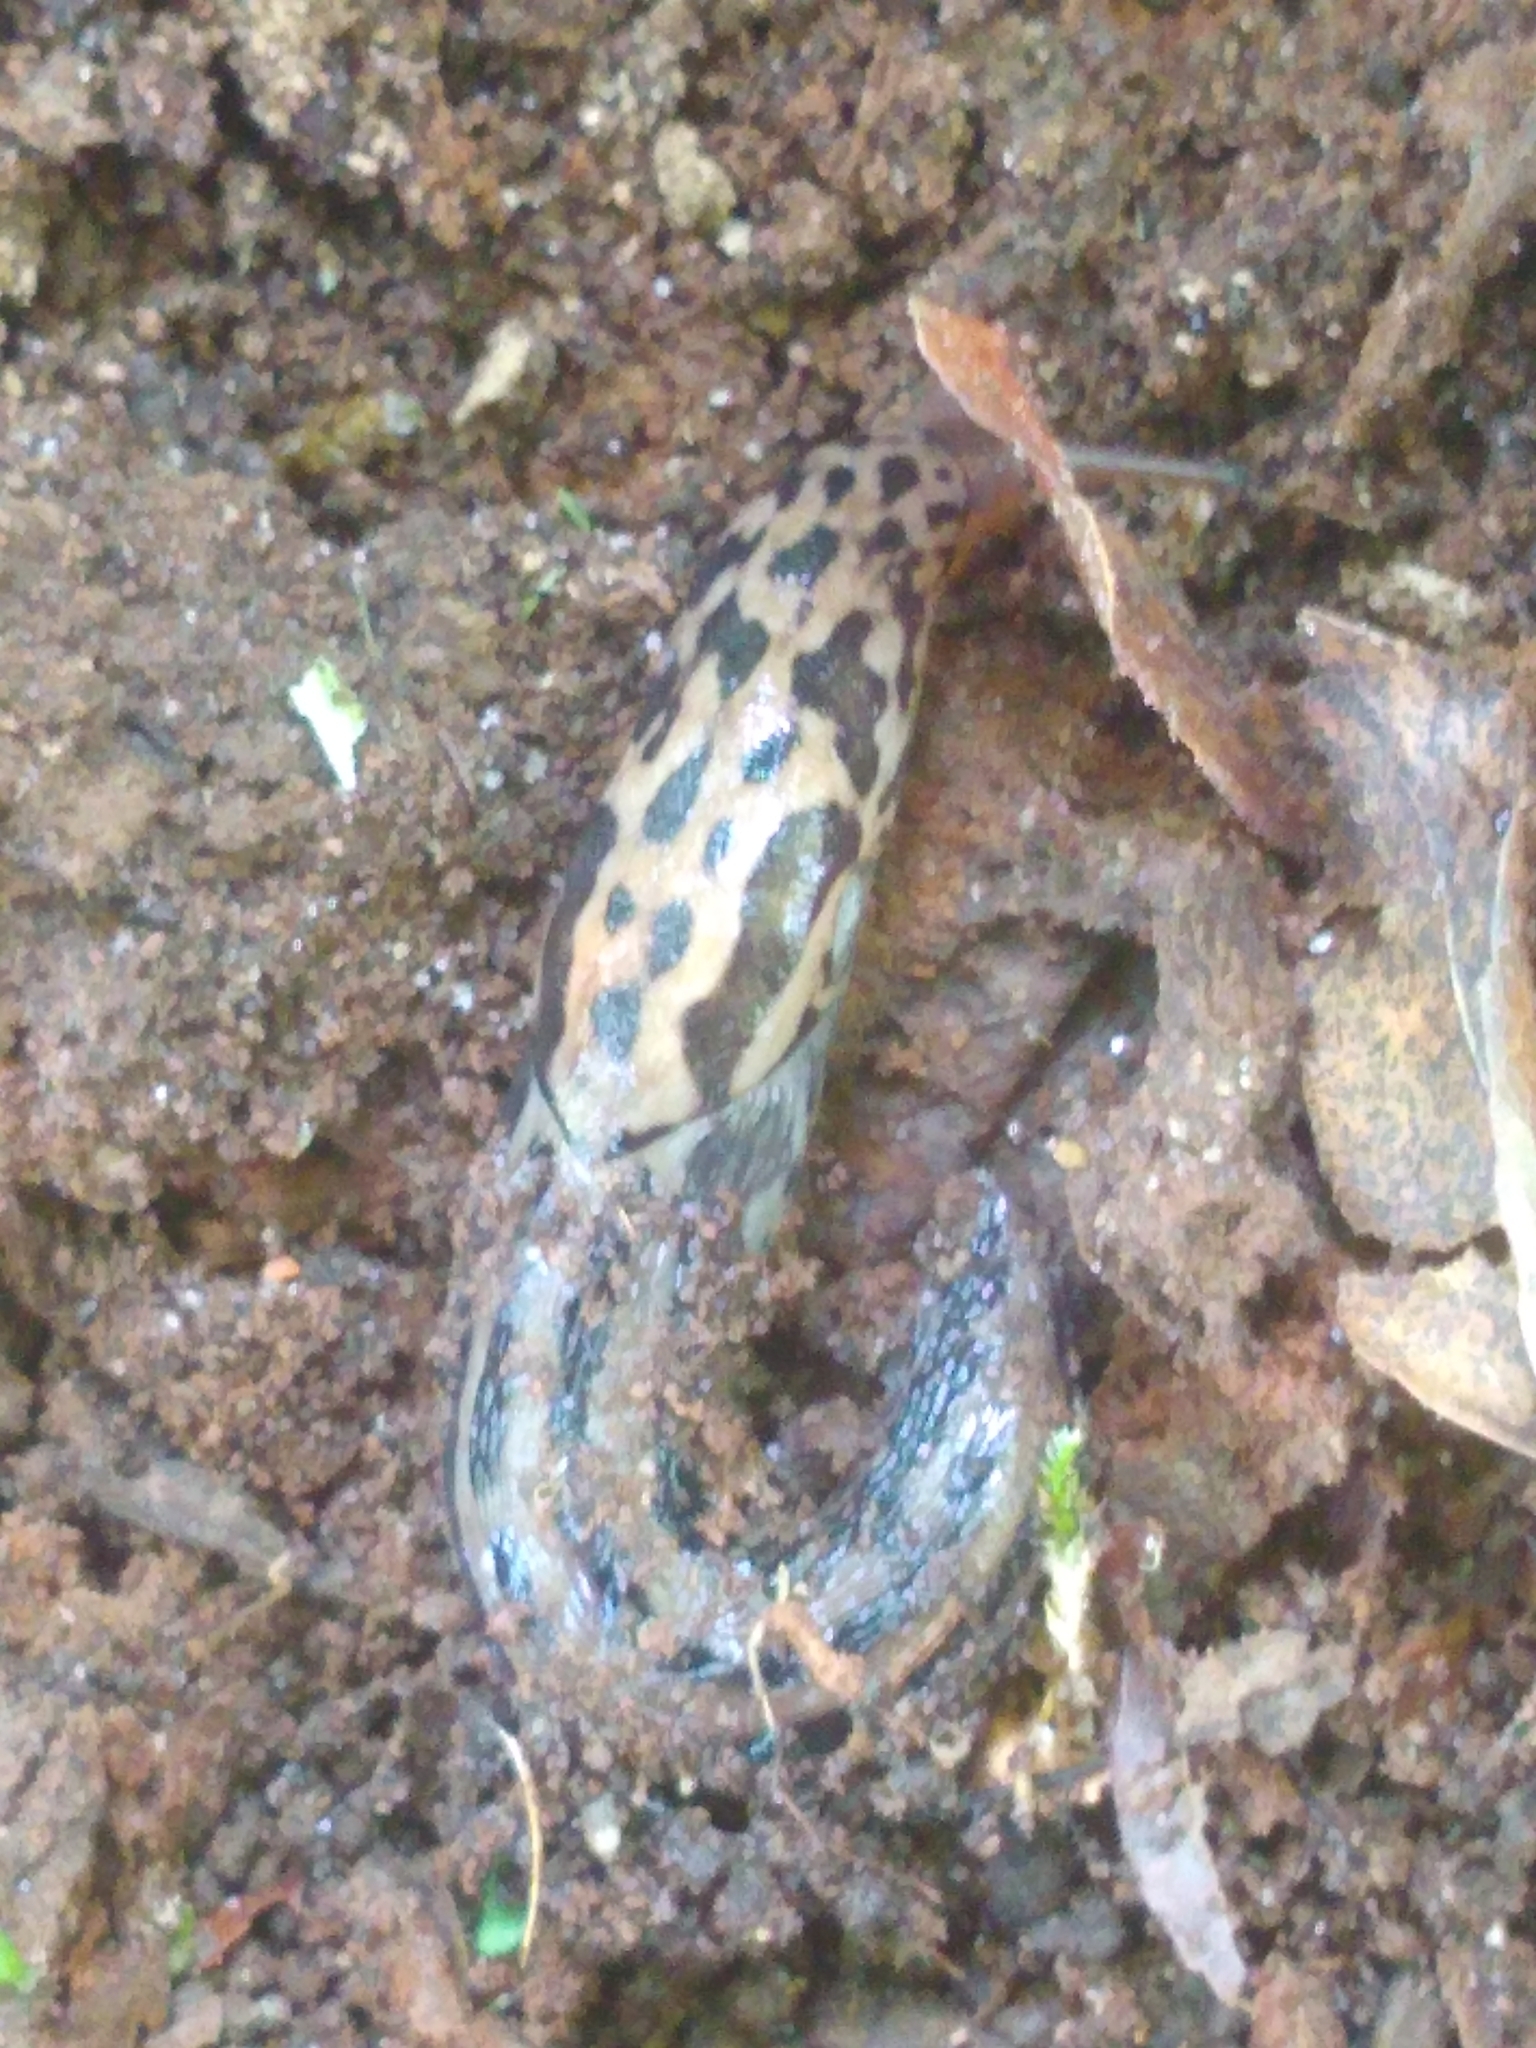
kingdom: Animalia
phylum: Mollusca
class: Gastropoda
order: Stylommatophora
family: Limacidae
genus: Limax
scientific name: Limax maximus
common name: Great grey slug
